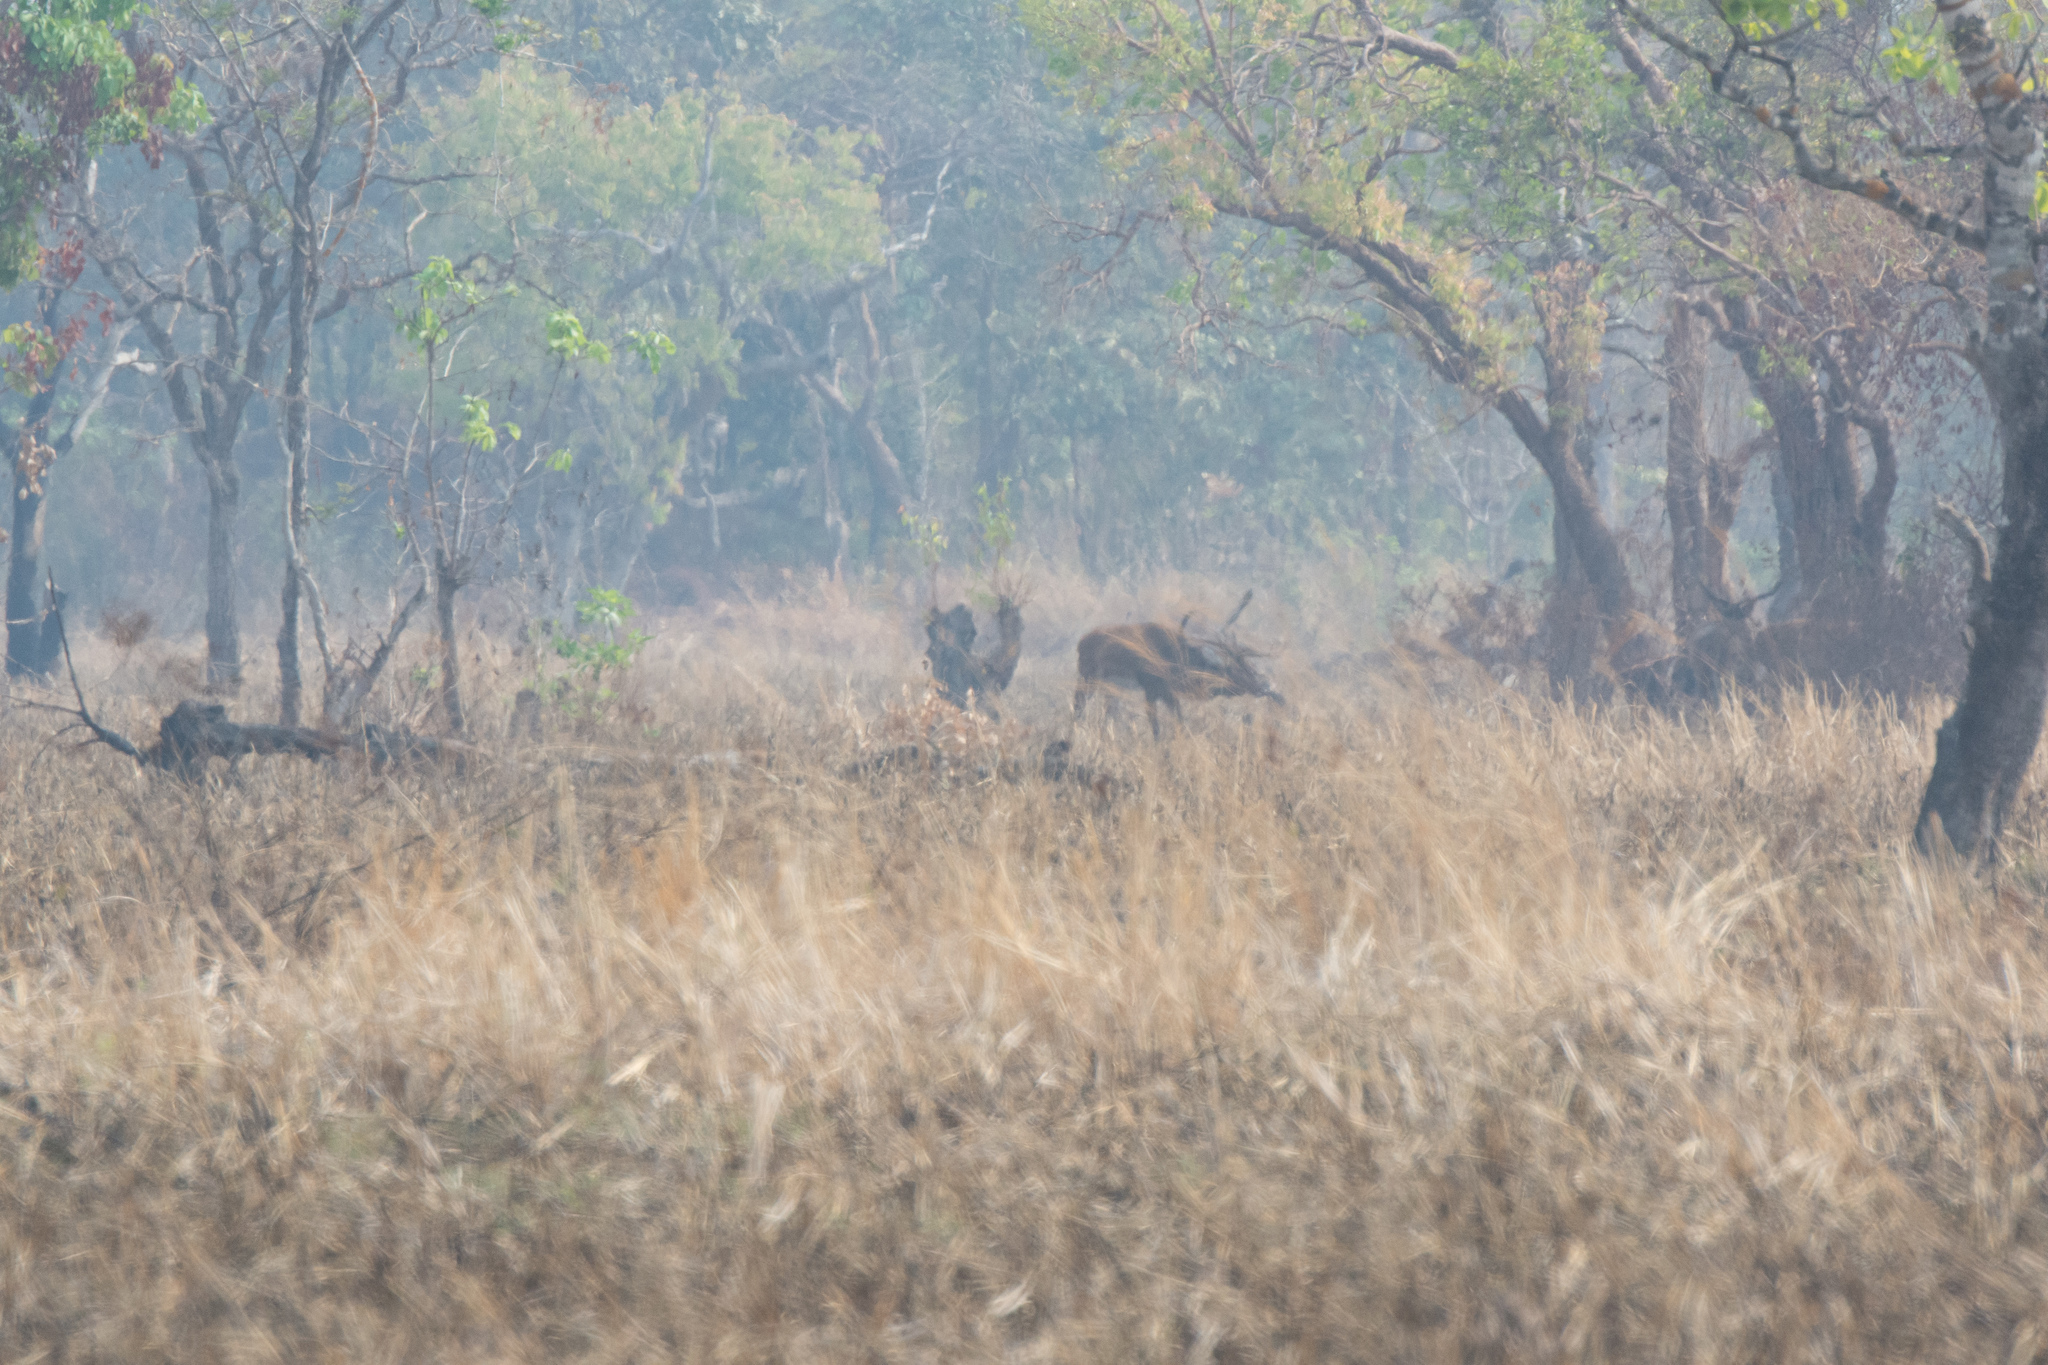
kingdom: Animalia
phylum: Chordata
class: Mammalia
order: Artiodactyla
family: Cervidae
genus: Rucervus
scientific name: Rucervus eldii
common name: Eld's deer
